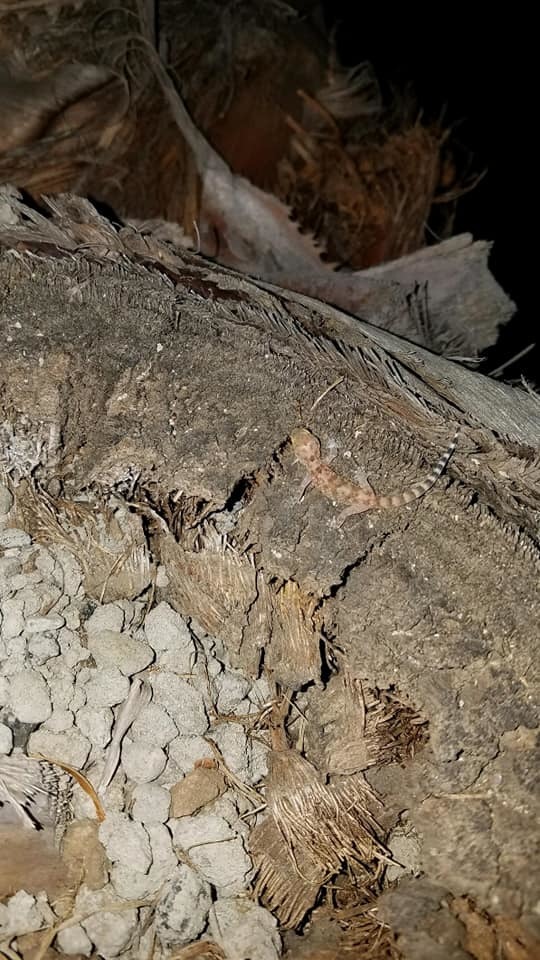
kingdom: Animalia
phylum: Chordata
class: Squamata
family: Gekkonidae
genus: Hemidactylus
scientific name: Hemidactylus turcicus
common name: Turkish gecko
